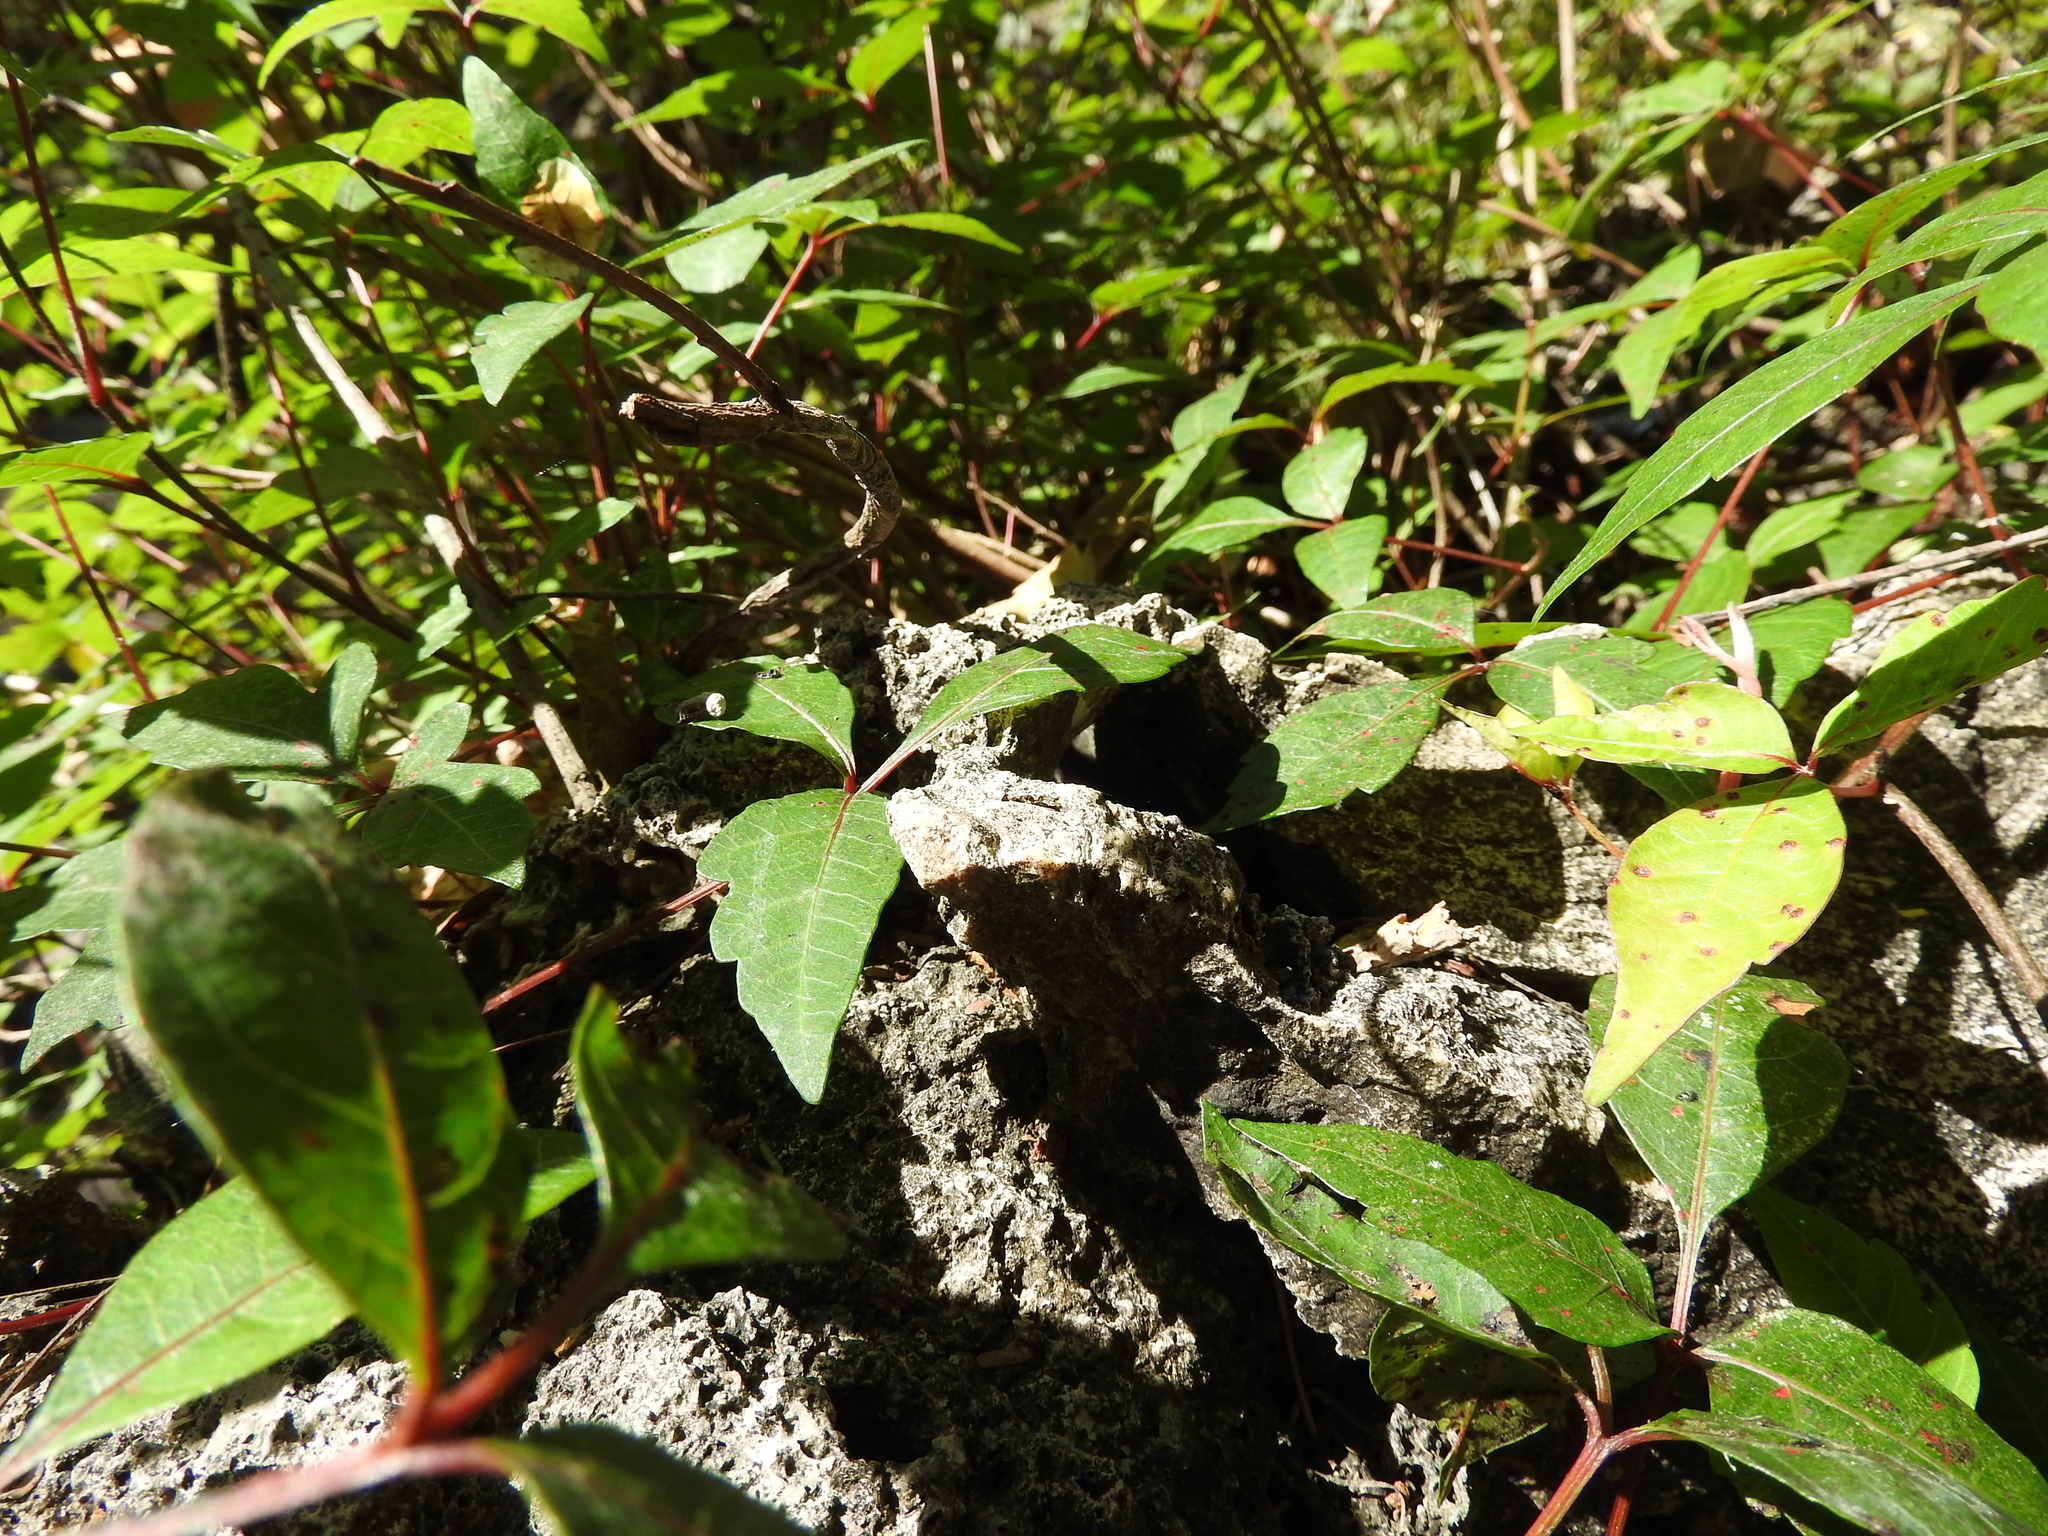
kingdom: Plantae
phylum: Tracheophyta
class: Magnoliopsida
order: Sapindales
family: Anacardiaceae
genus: Toxicodendron
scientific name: Toxicodendron radicans
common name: Poison ivy
